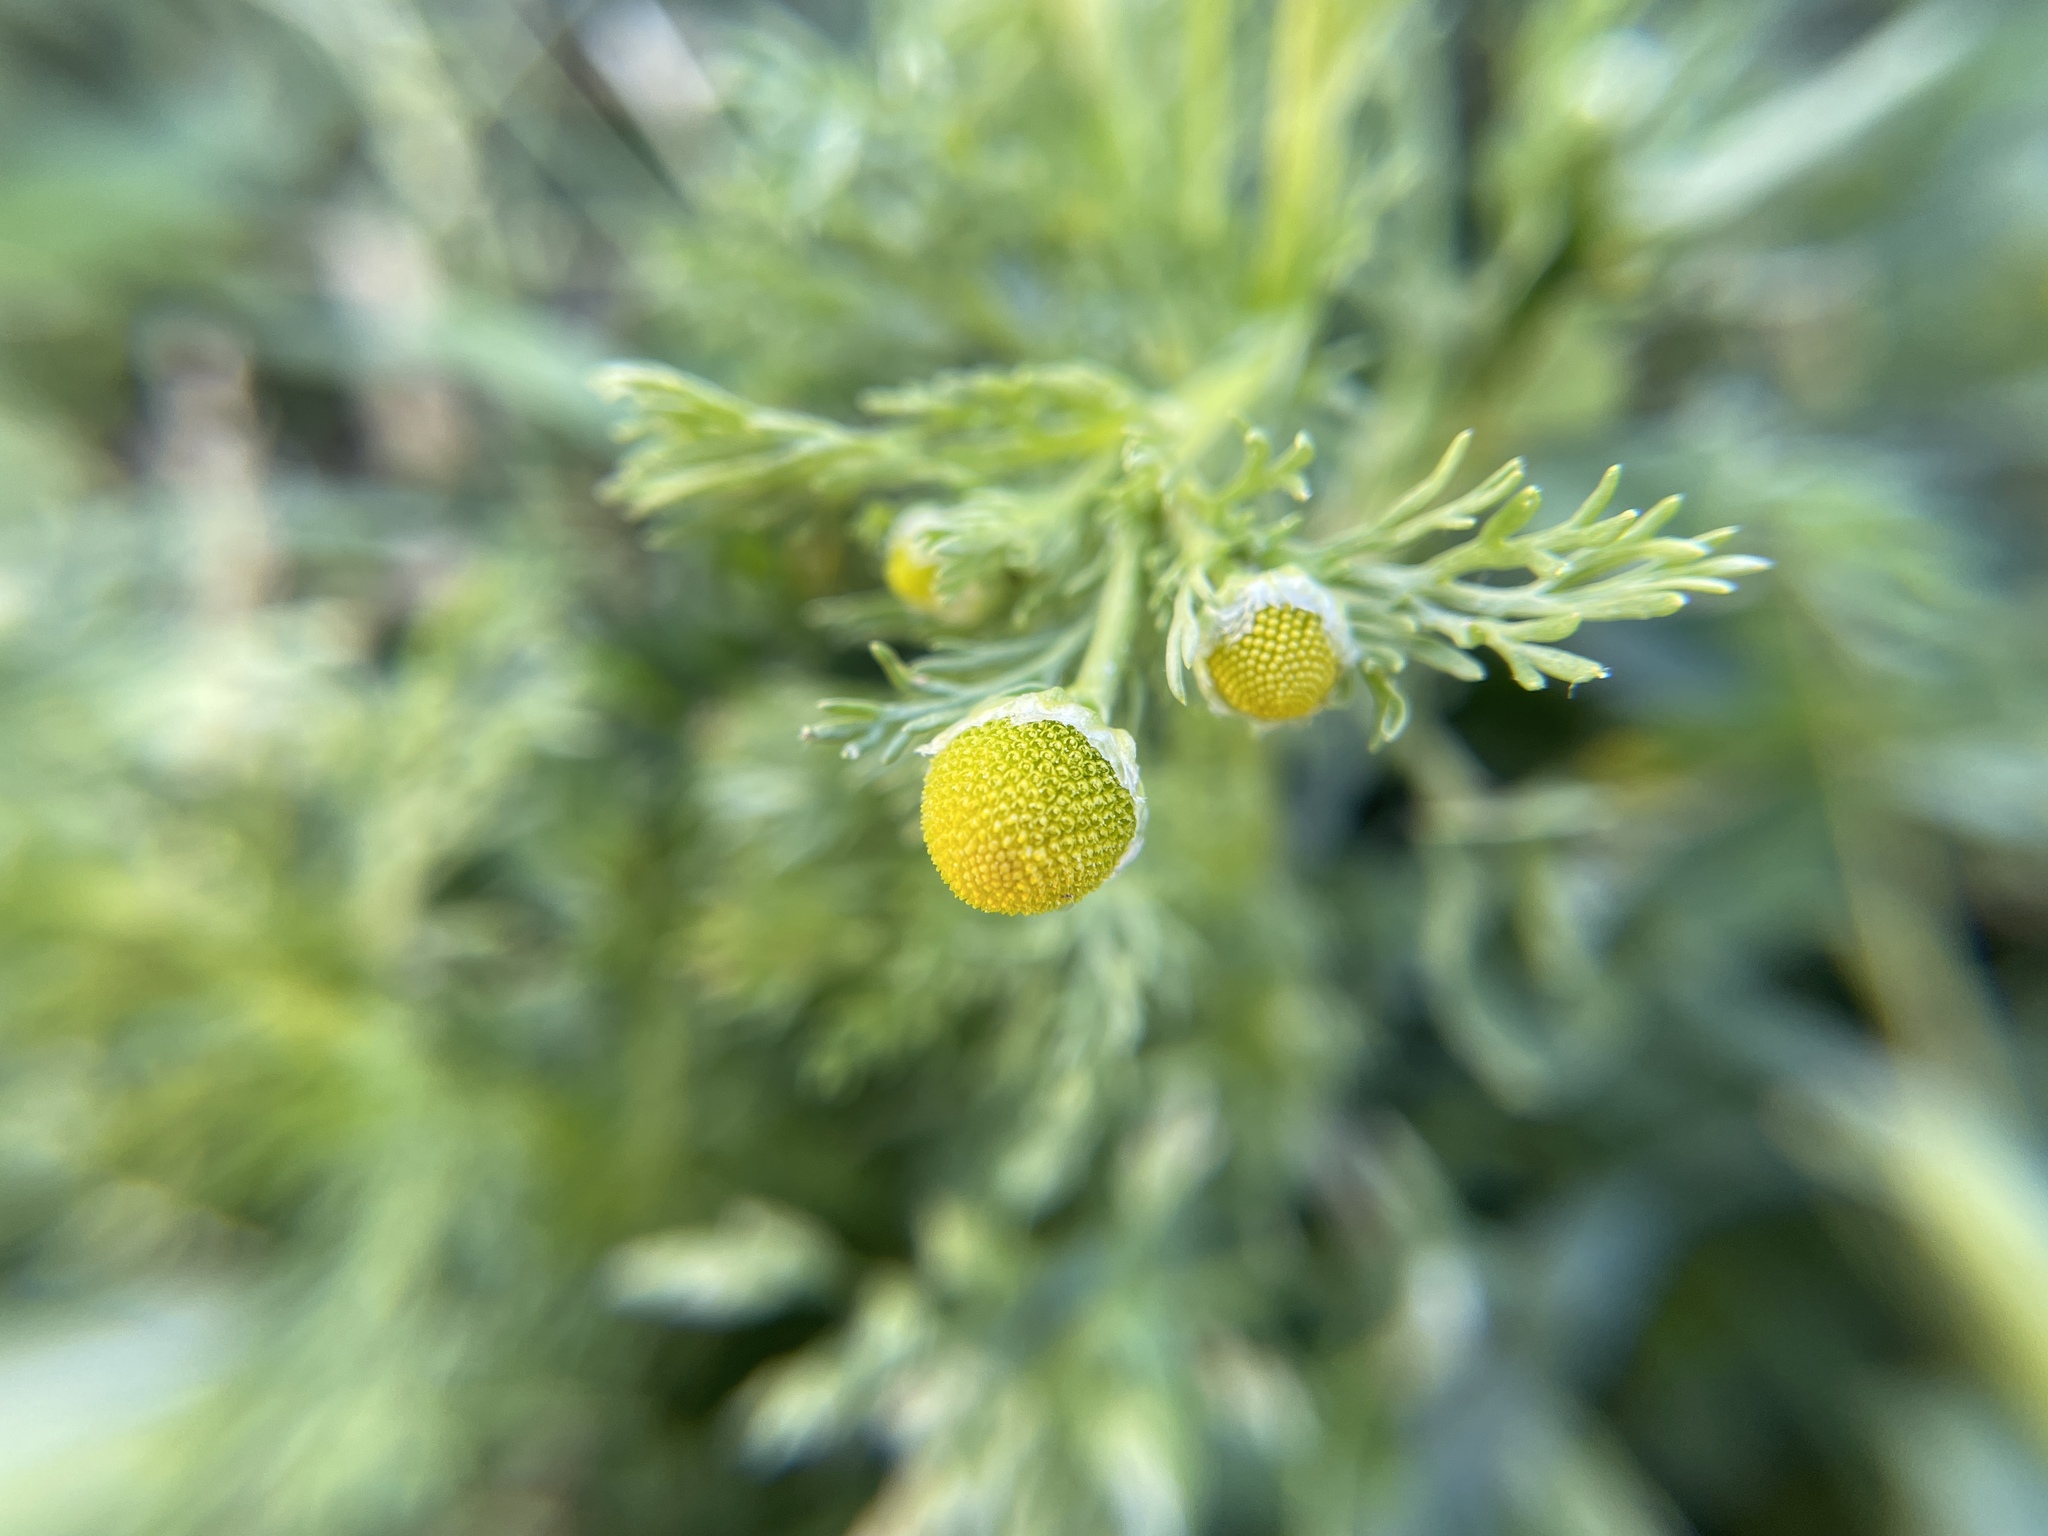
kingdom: Plantae
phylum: Tracheophyta
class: Magnoliopsida
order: Asterales
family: Asteraceae
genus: Matricaria
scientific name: Matricaria discoidea
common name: Disc mayweed
